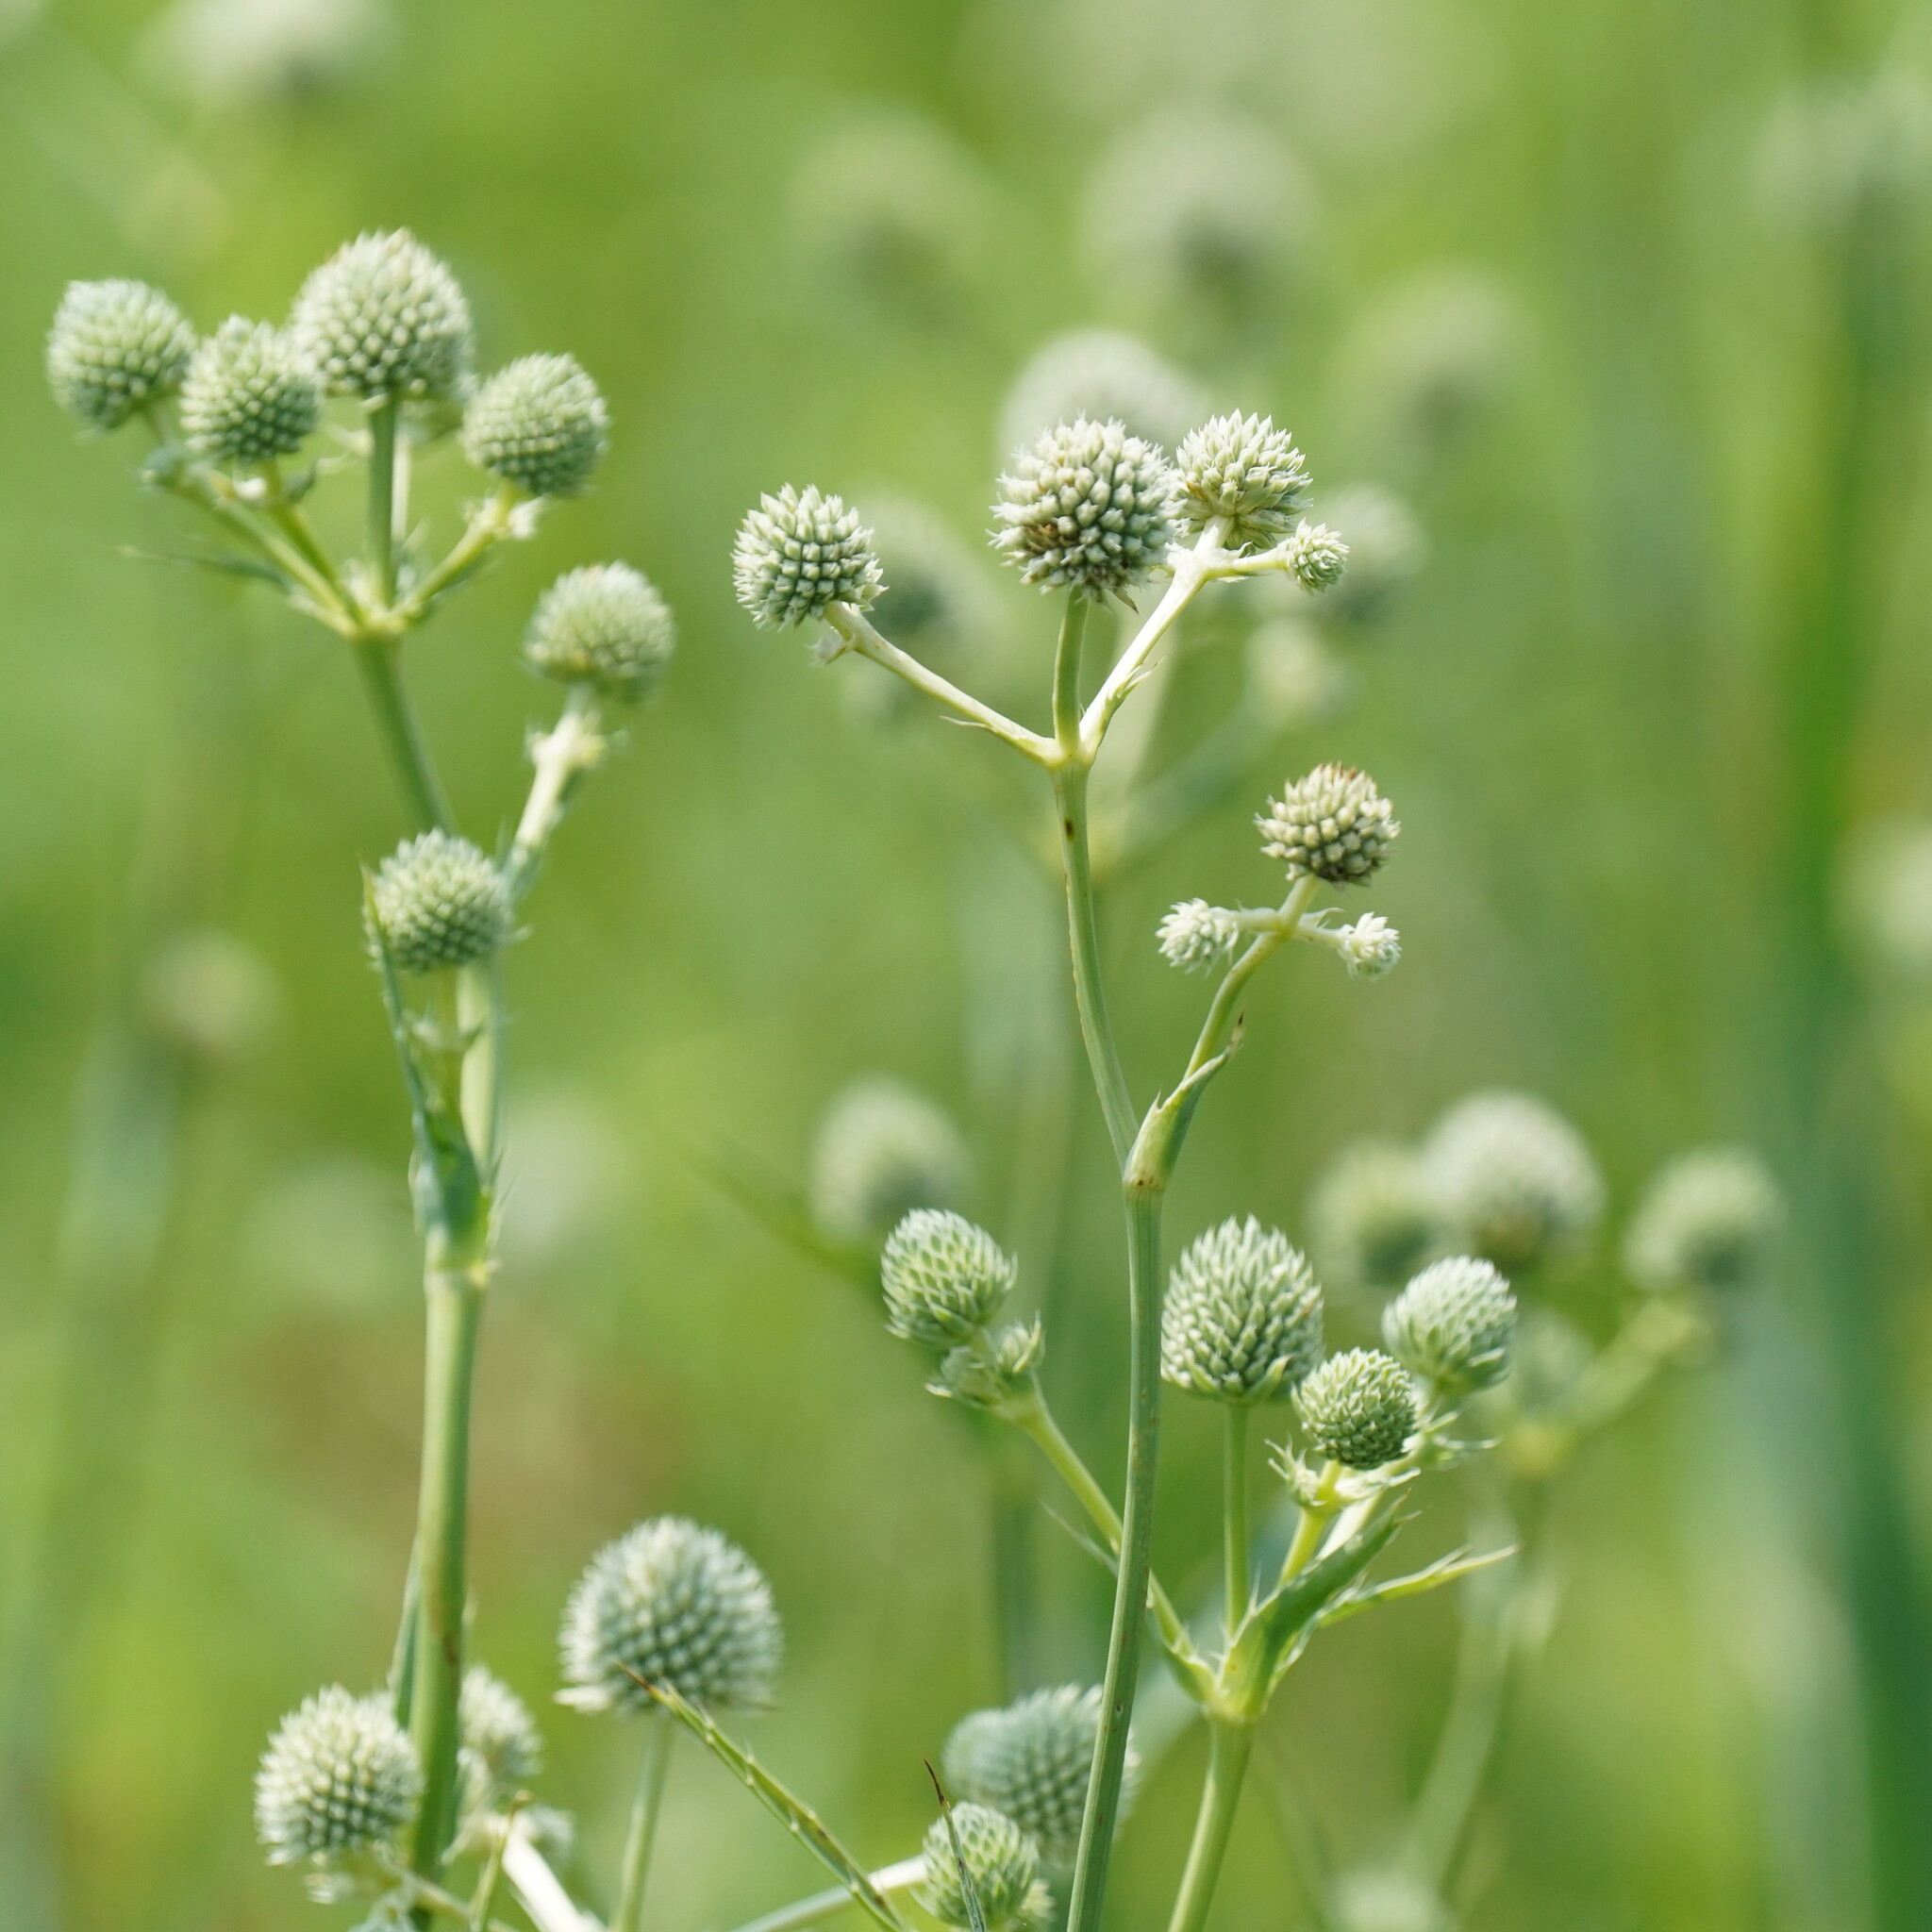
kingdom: Plantae
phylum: Tracheophyta
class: Magnoliopsida
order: Apiales
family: Apiaceae
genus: Eryngium
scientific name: Eryngium yuccifolium
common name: Button eryngo
